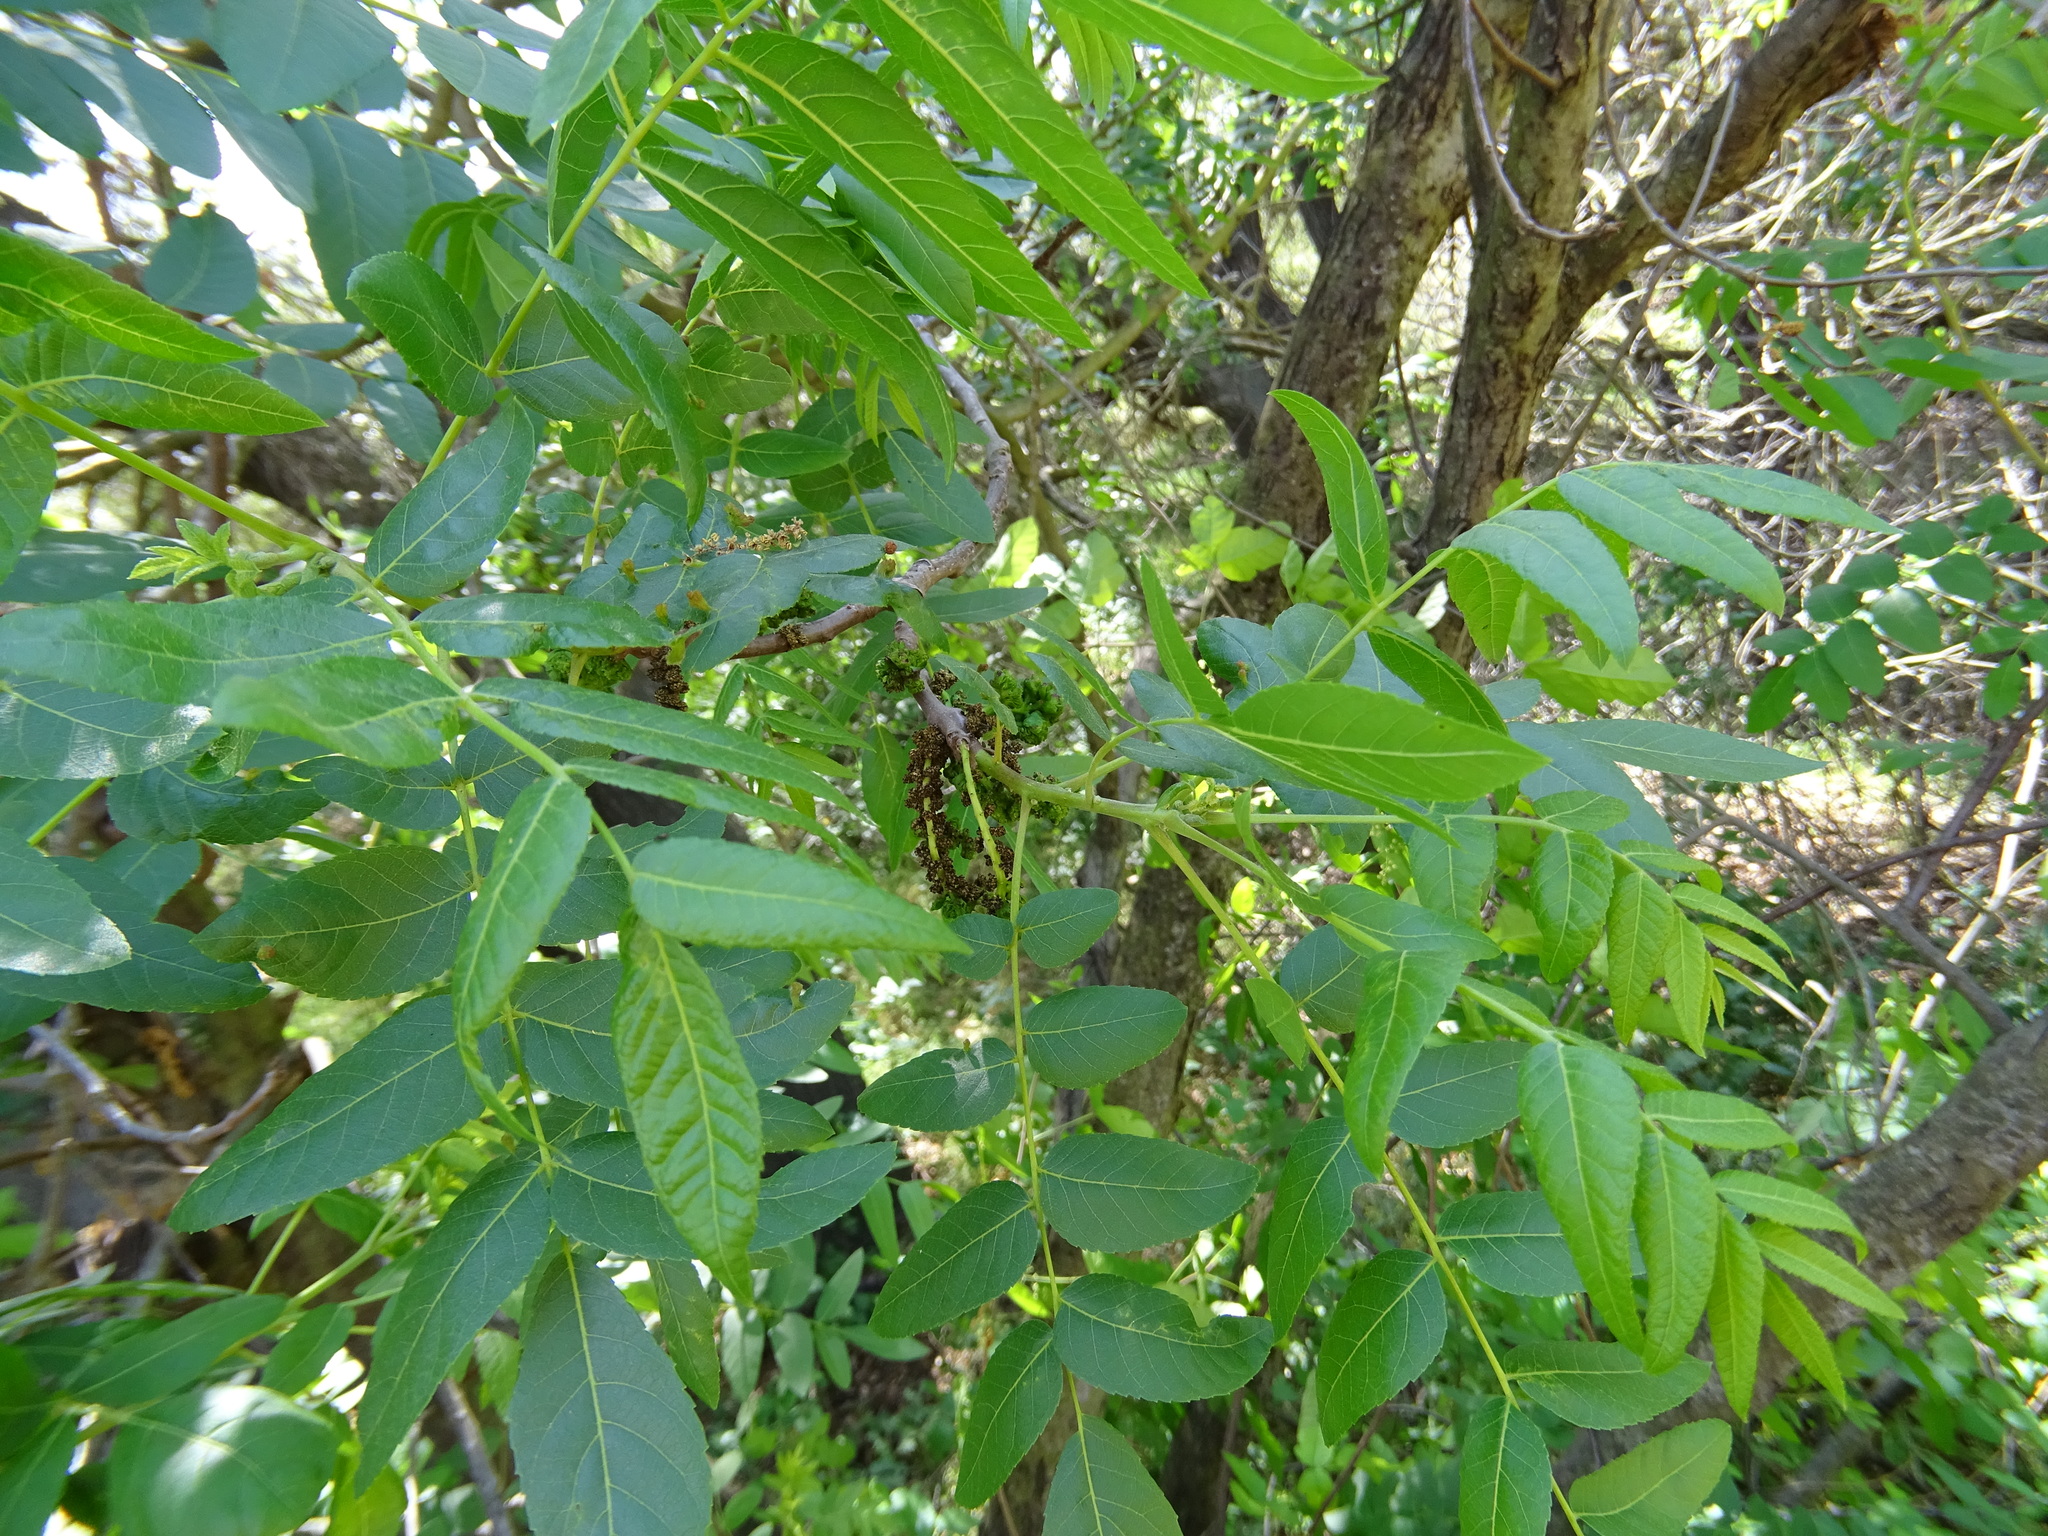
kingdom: Plantae
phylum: Tracheophyta
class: Magnoliopsida
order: Fagales
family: Juglandaceae
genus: Juglans
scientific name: Juglans californica
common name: Southern california black walnut
